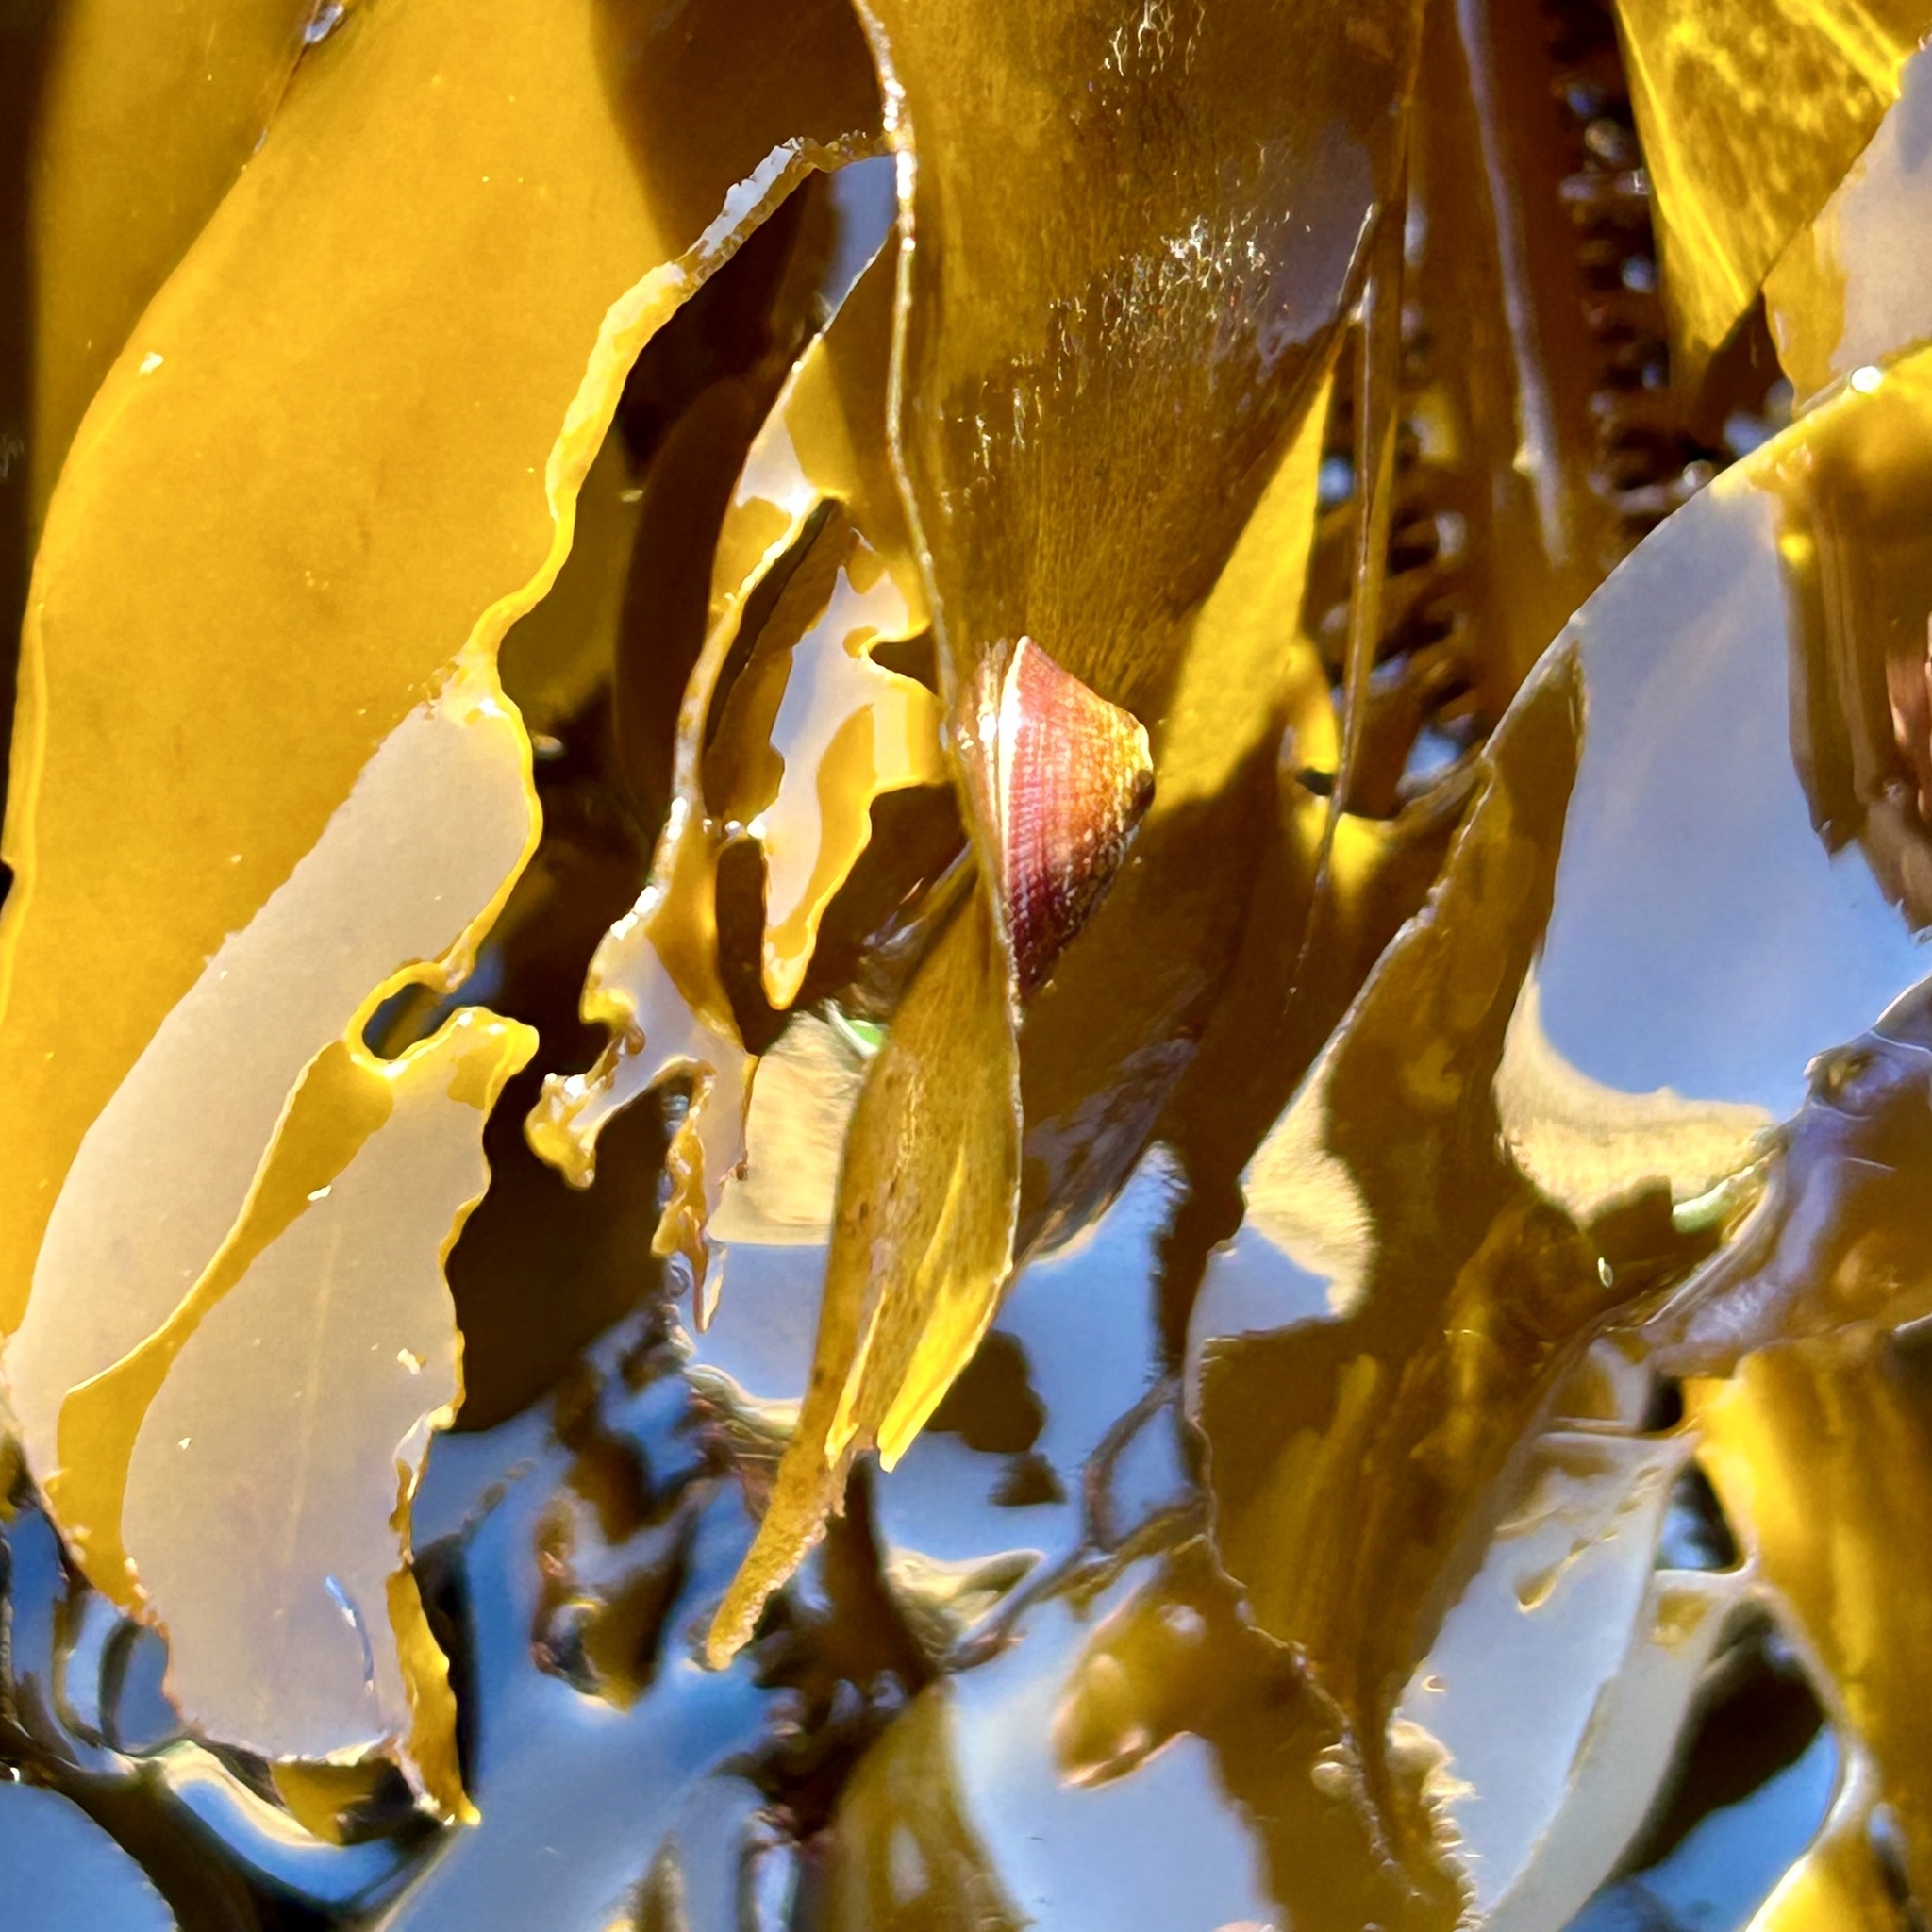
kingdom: Animalia
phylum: Mollusca
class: Gastropoda
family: Lottiidae
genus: Lottia
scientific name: Lottia pelta
